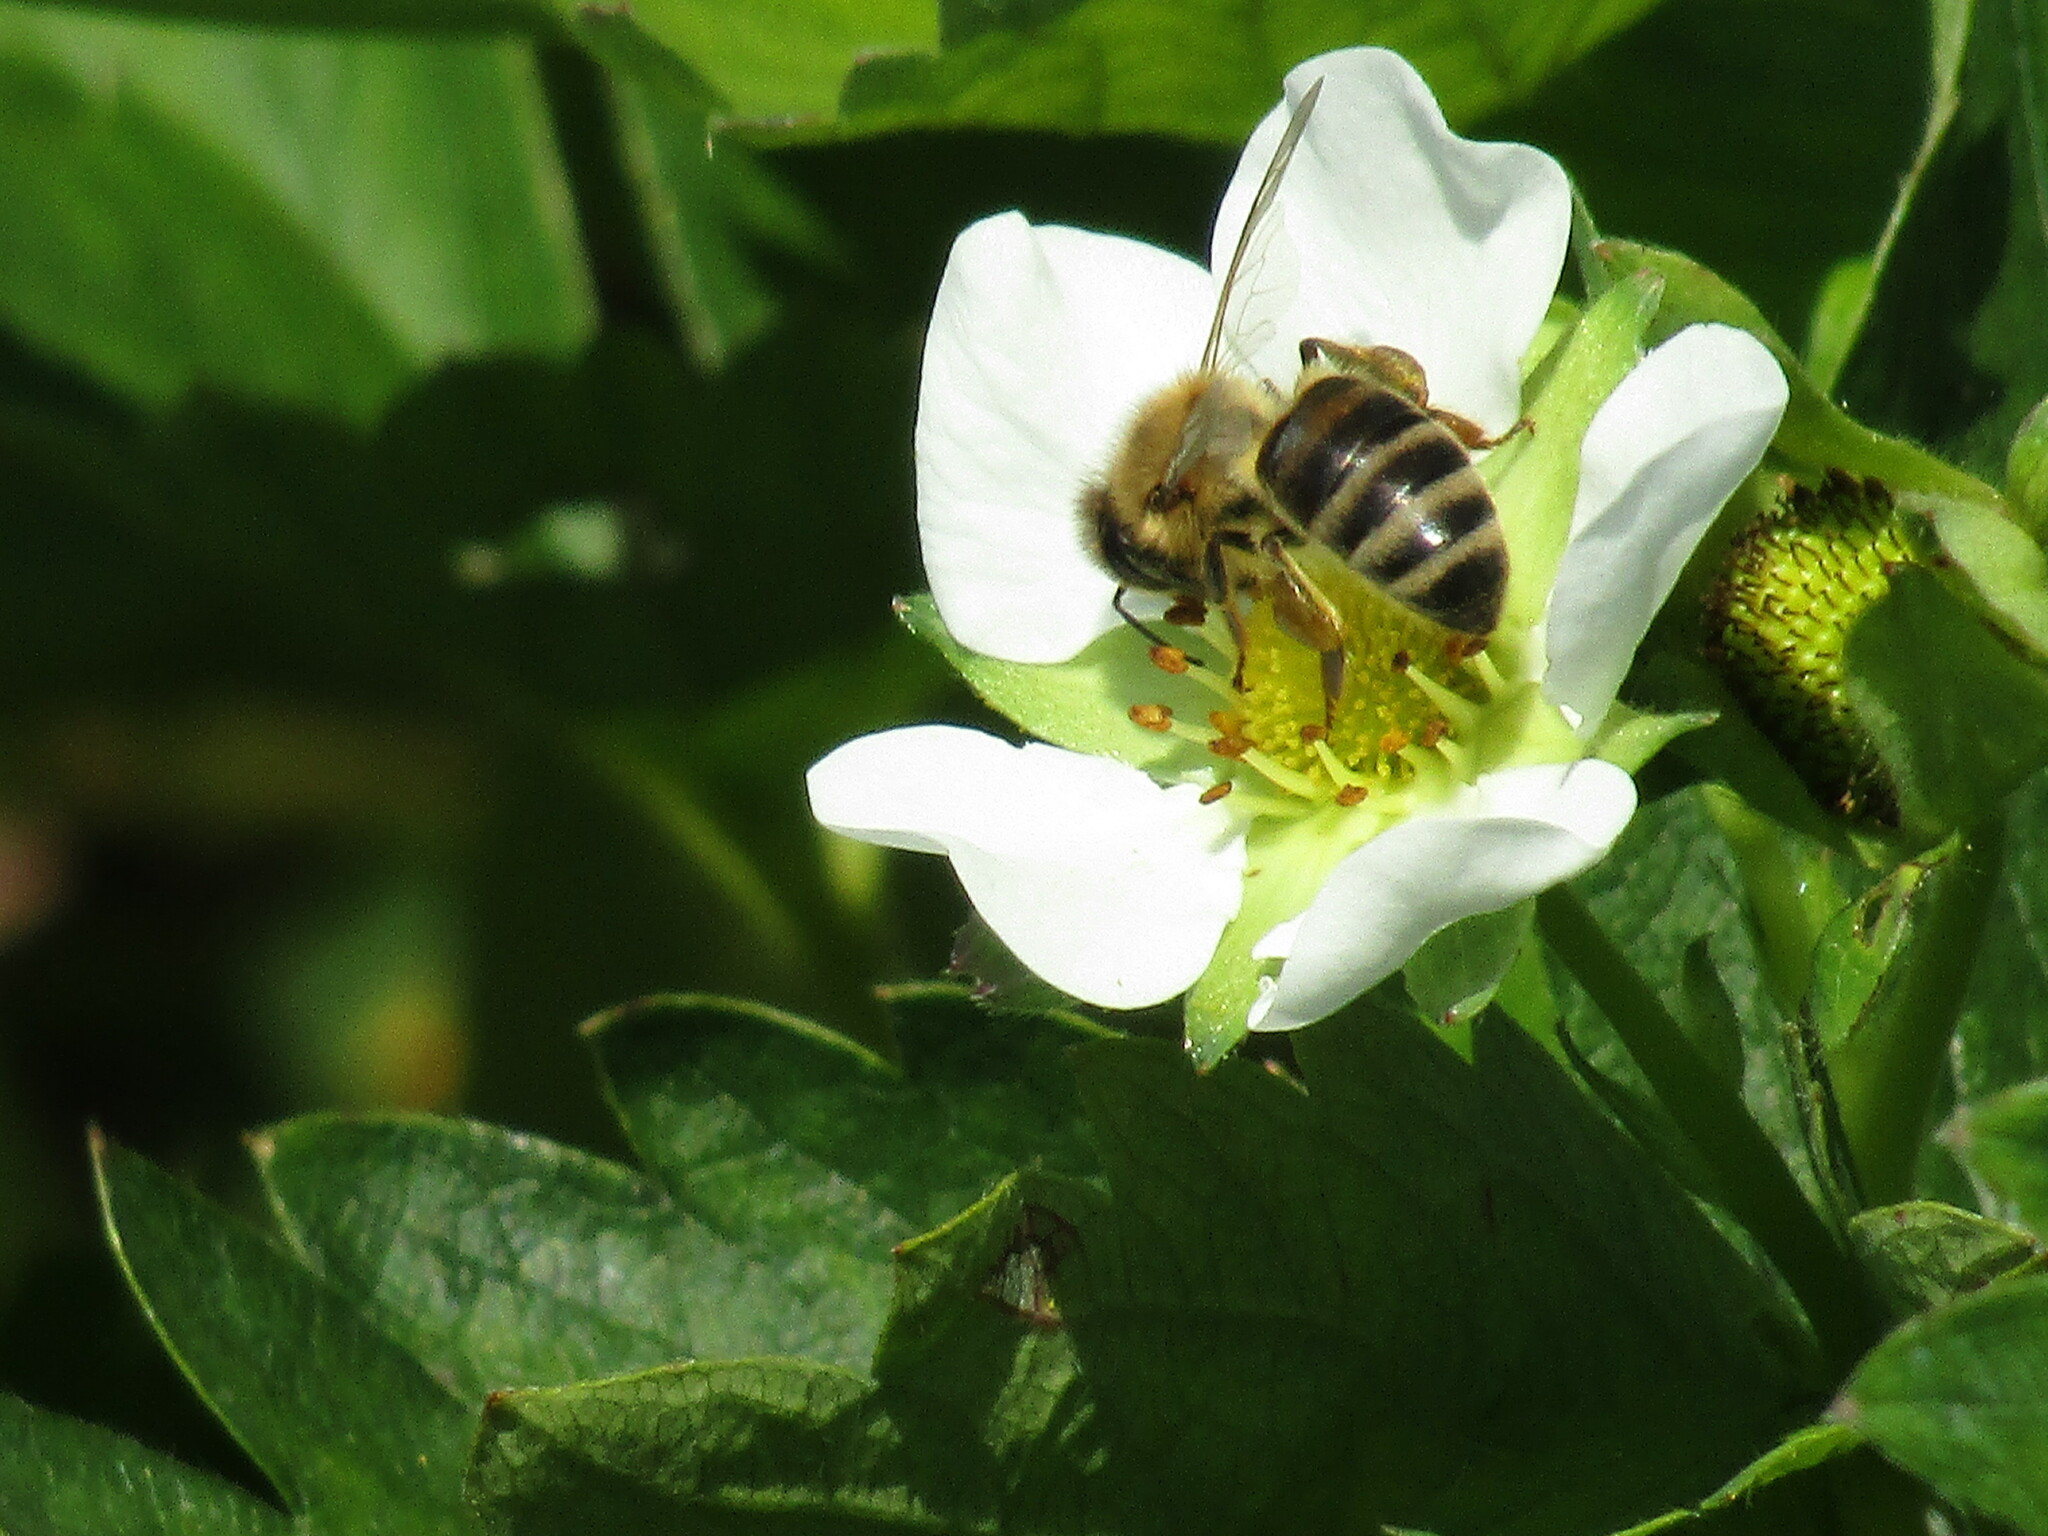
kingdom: Animalia
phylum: Arthropoda
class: Insecta
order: Hymenoptera
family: Apidae
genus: Apis
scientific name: Apis mellifera
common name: Honey bee
